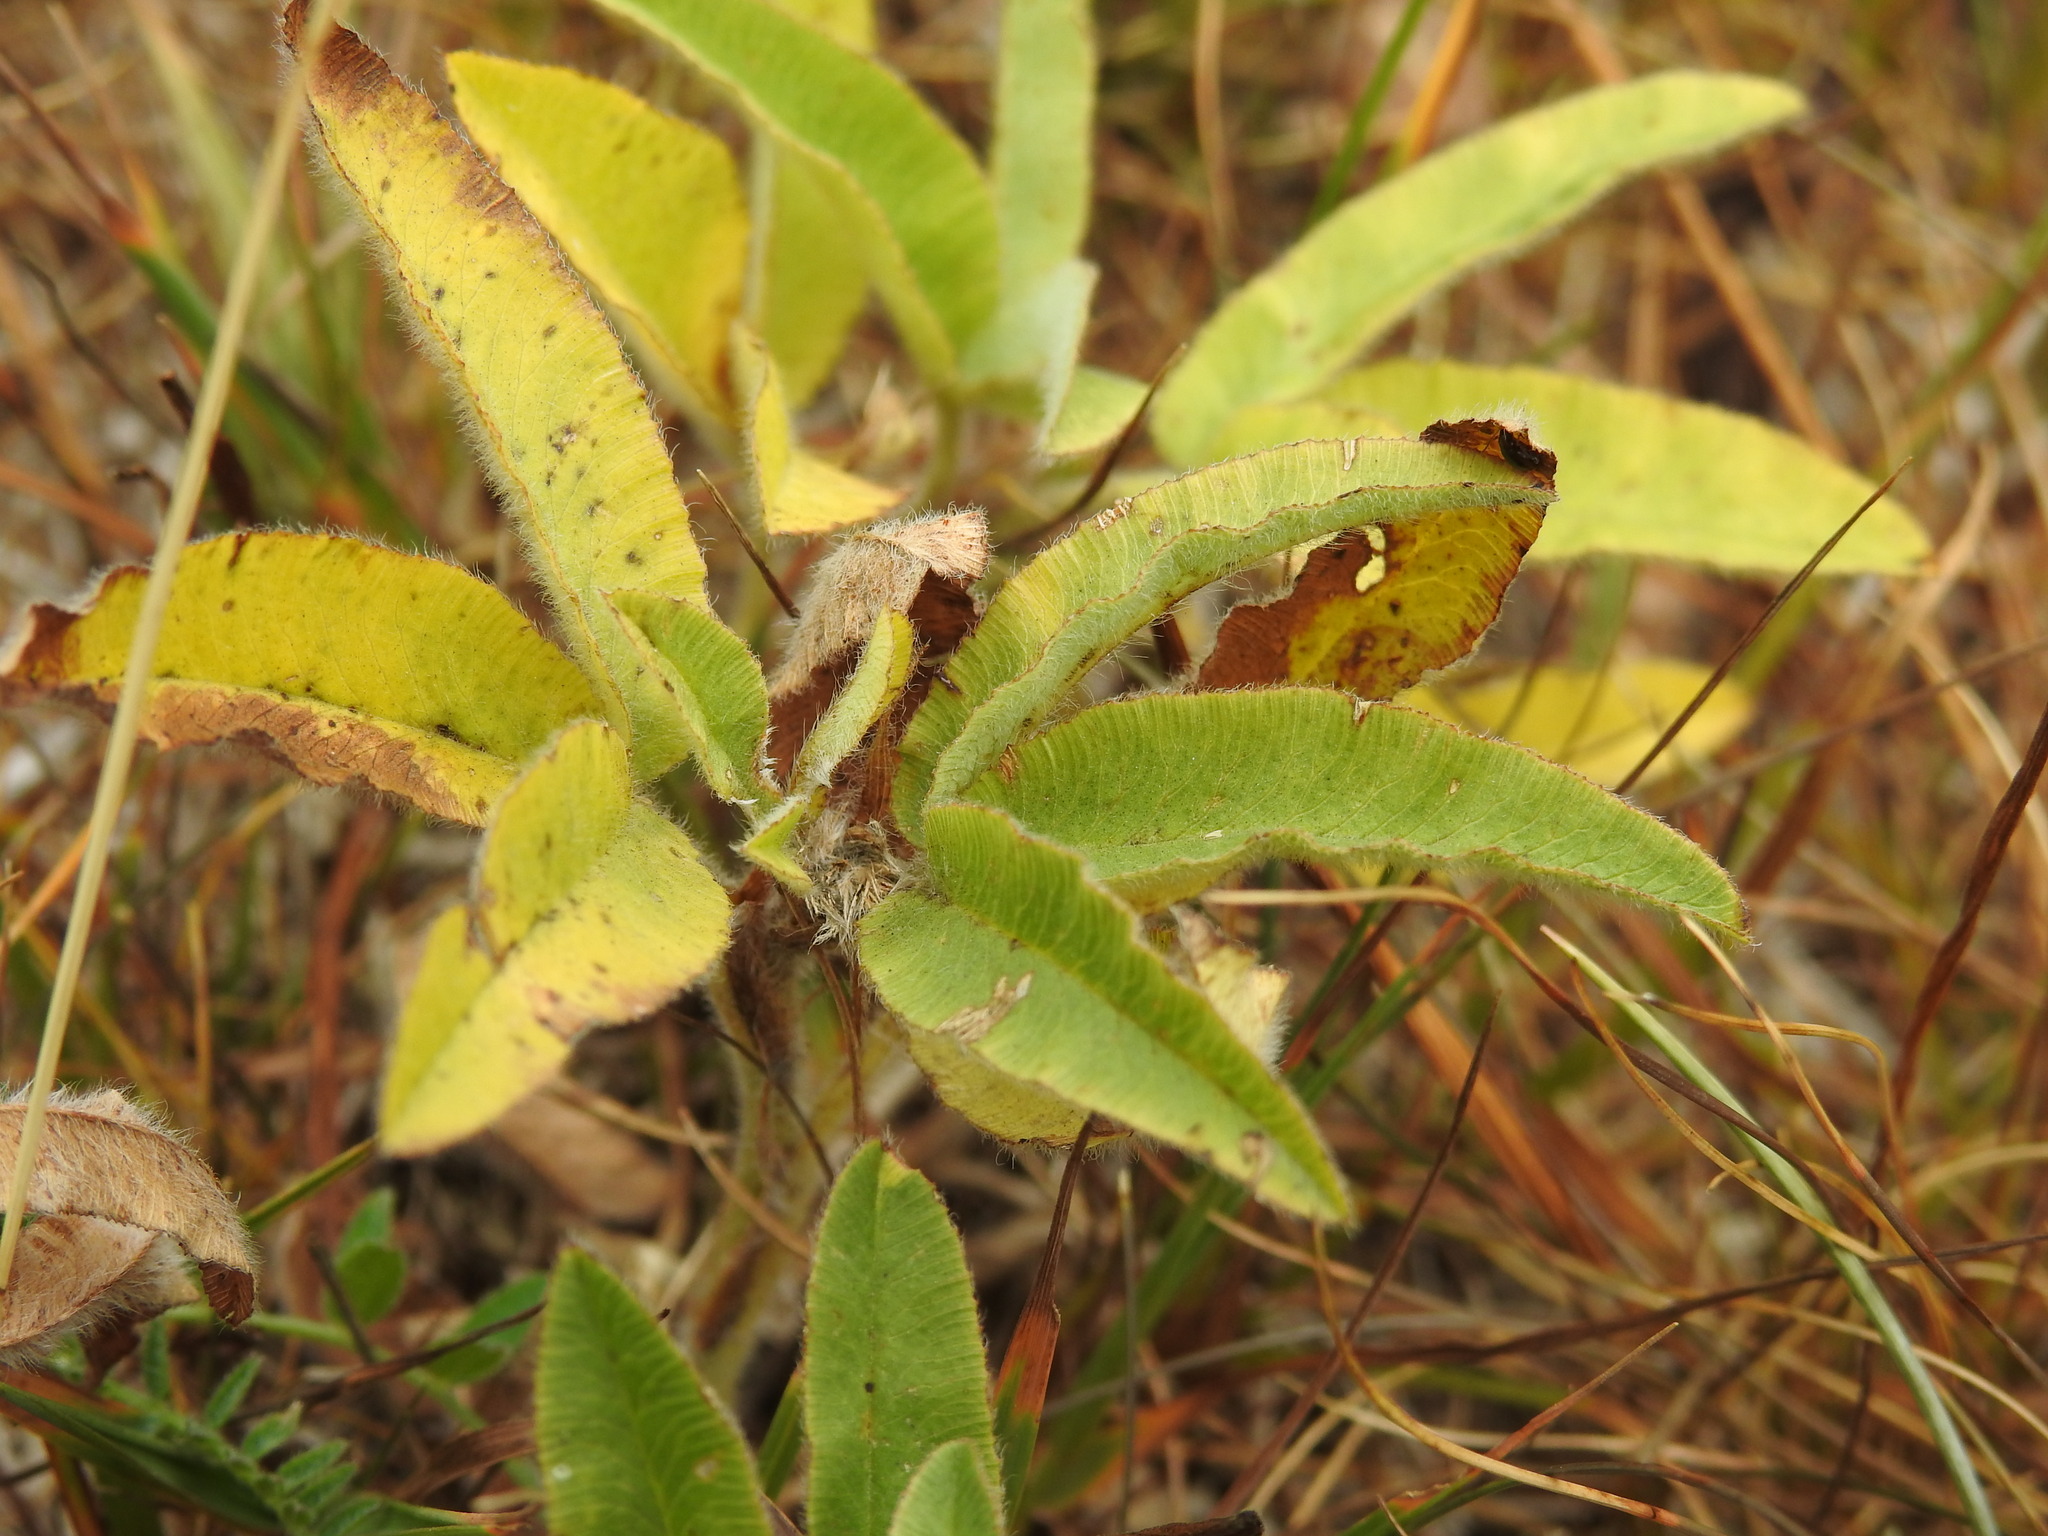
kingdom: Plantae
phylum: Tracheophyta
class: Magnoliopsida
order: Fabales
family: Fabaceae
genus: Trifolium
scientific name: Trifolium alpestre
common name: Owl-head clover
